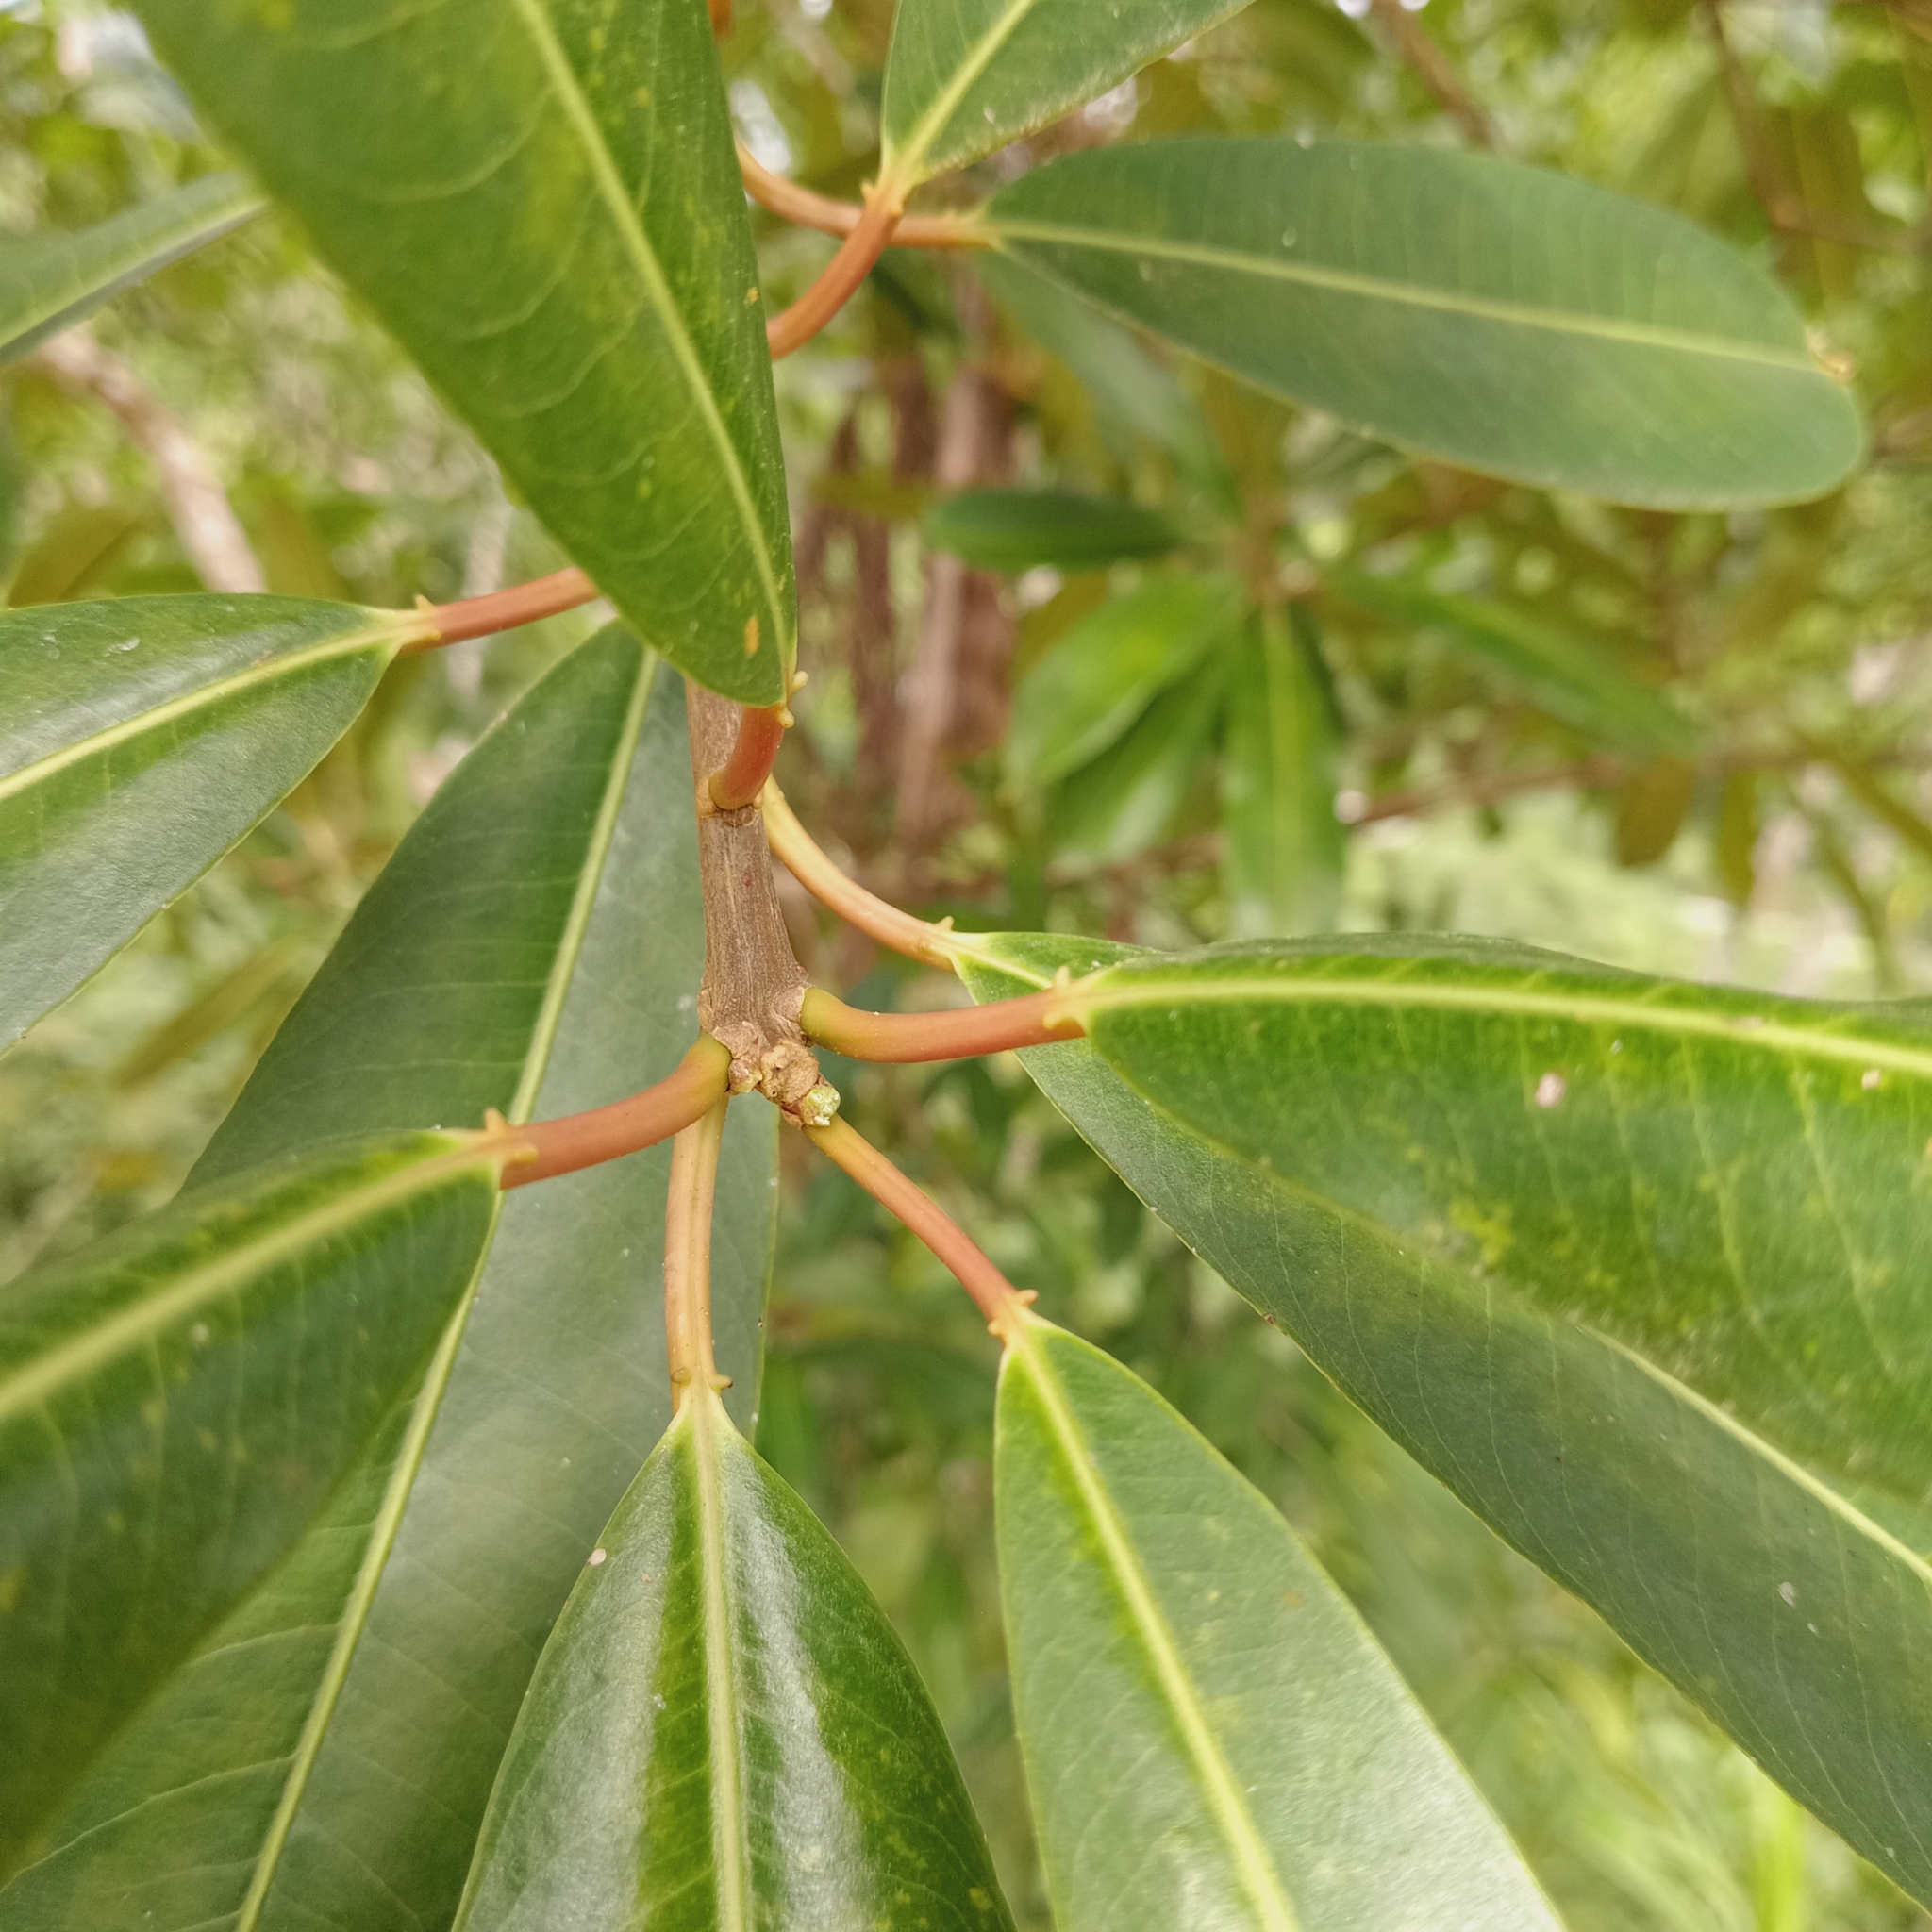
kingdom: Plantae
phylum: Tracheophyta
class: Magnoliopsida
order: Malpighiales
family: Euphorbiaceae
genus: Sapium
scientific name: Sapium glandulosum
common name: Milktree
